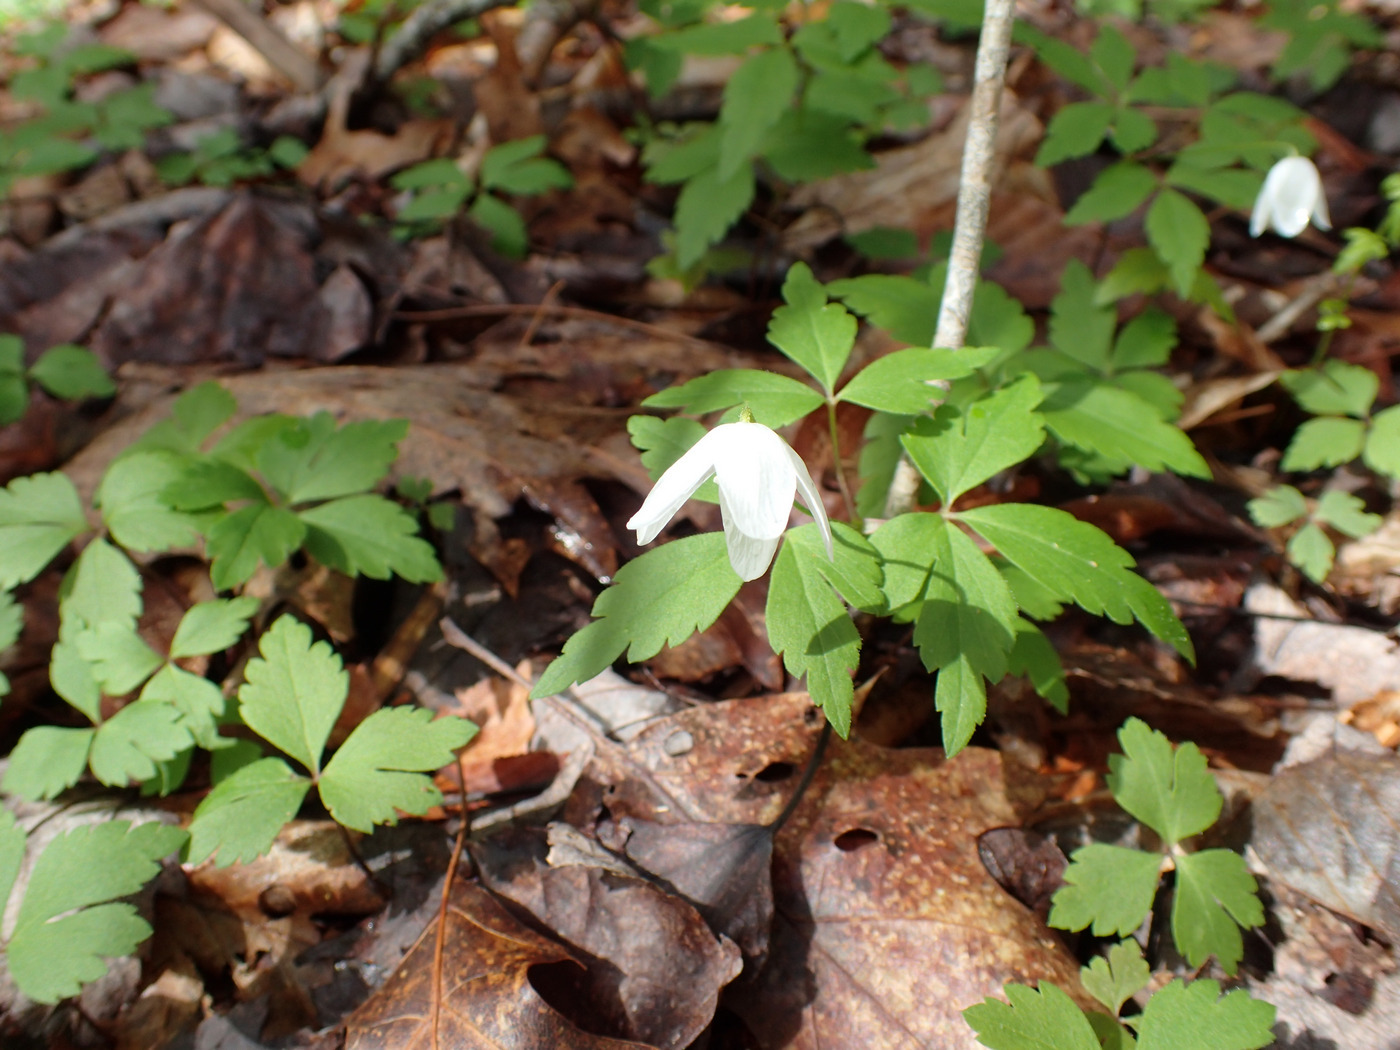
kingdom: Plantae
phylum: Tracheophyta
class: Magnoliopsida
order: Ranunculales
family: Ranunculaceae
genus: Anemone
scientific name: Anemone quinquefolia
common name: Wood anemone
